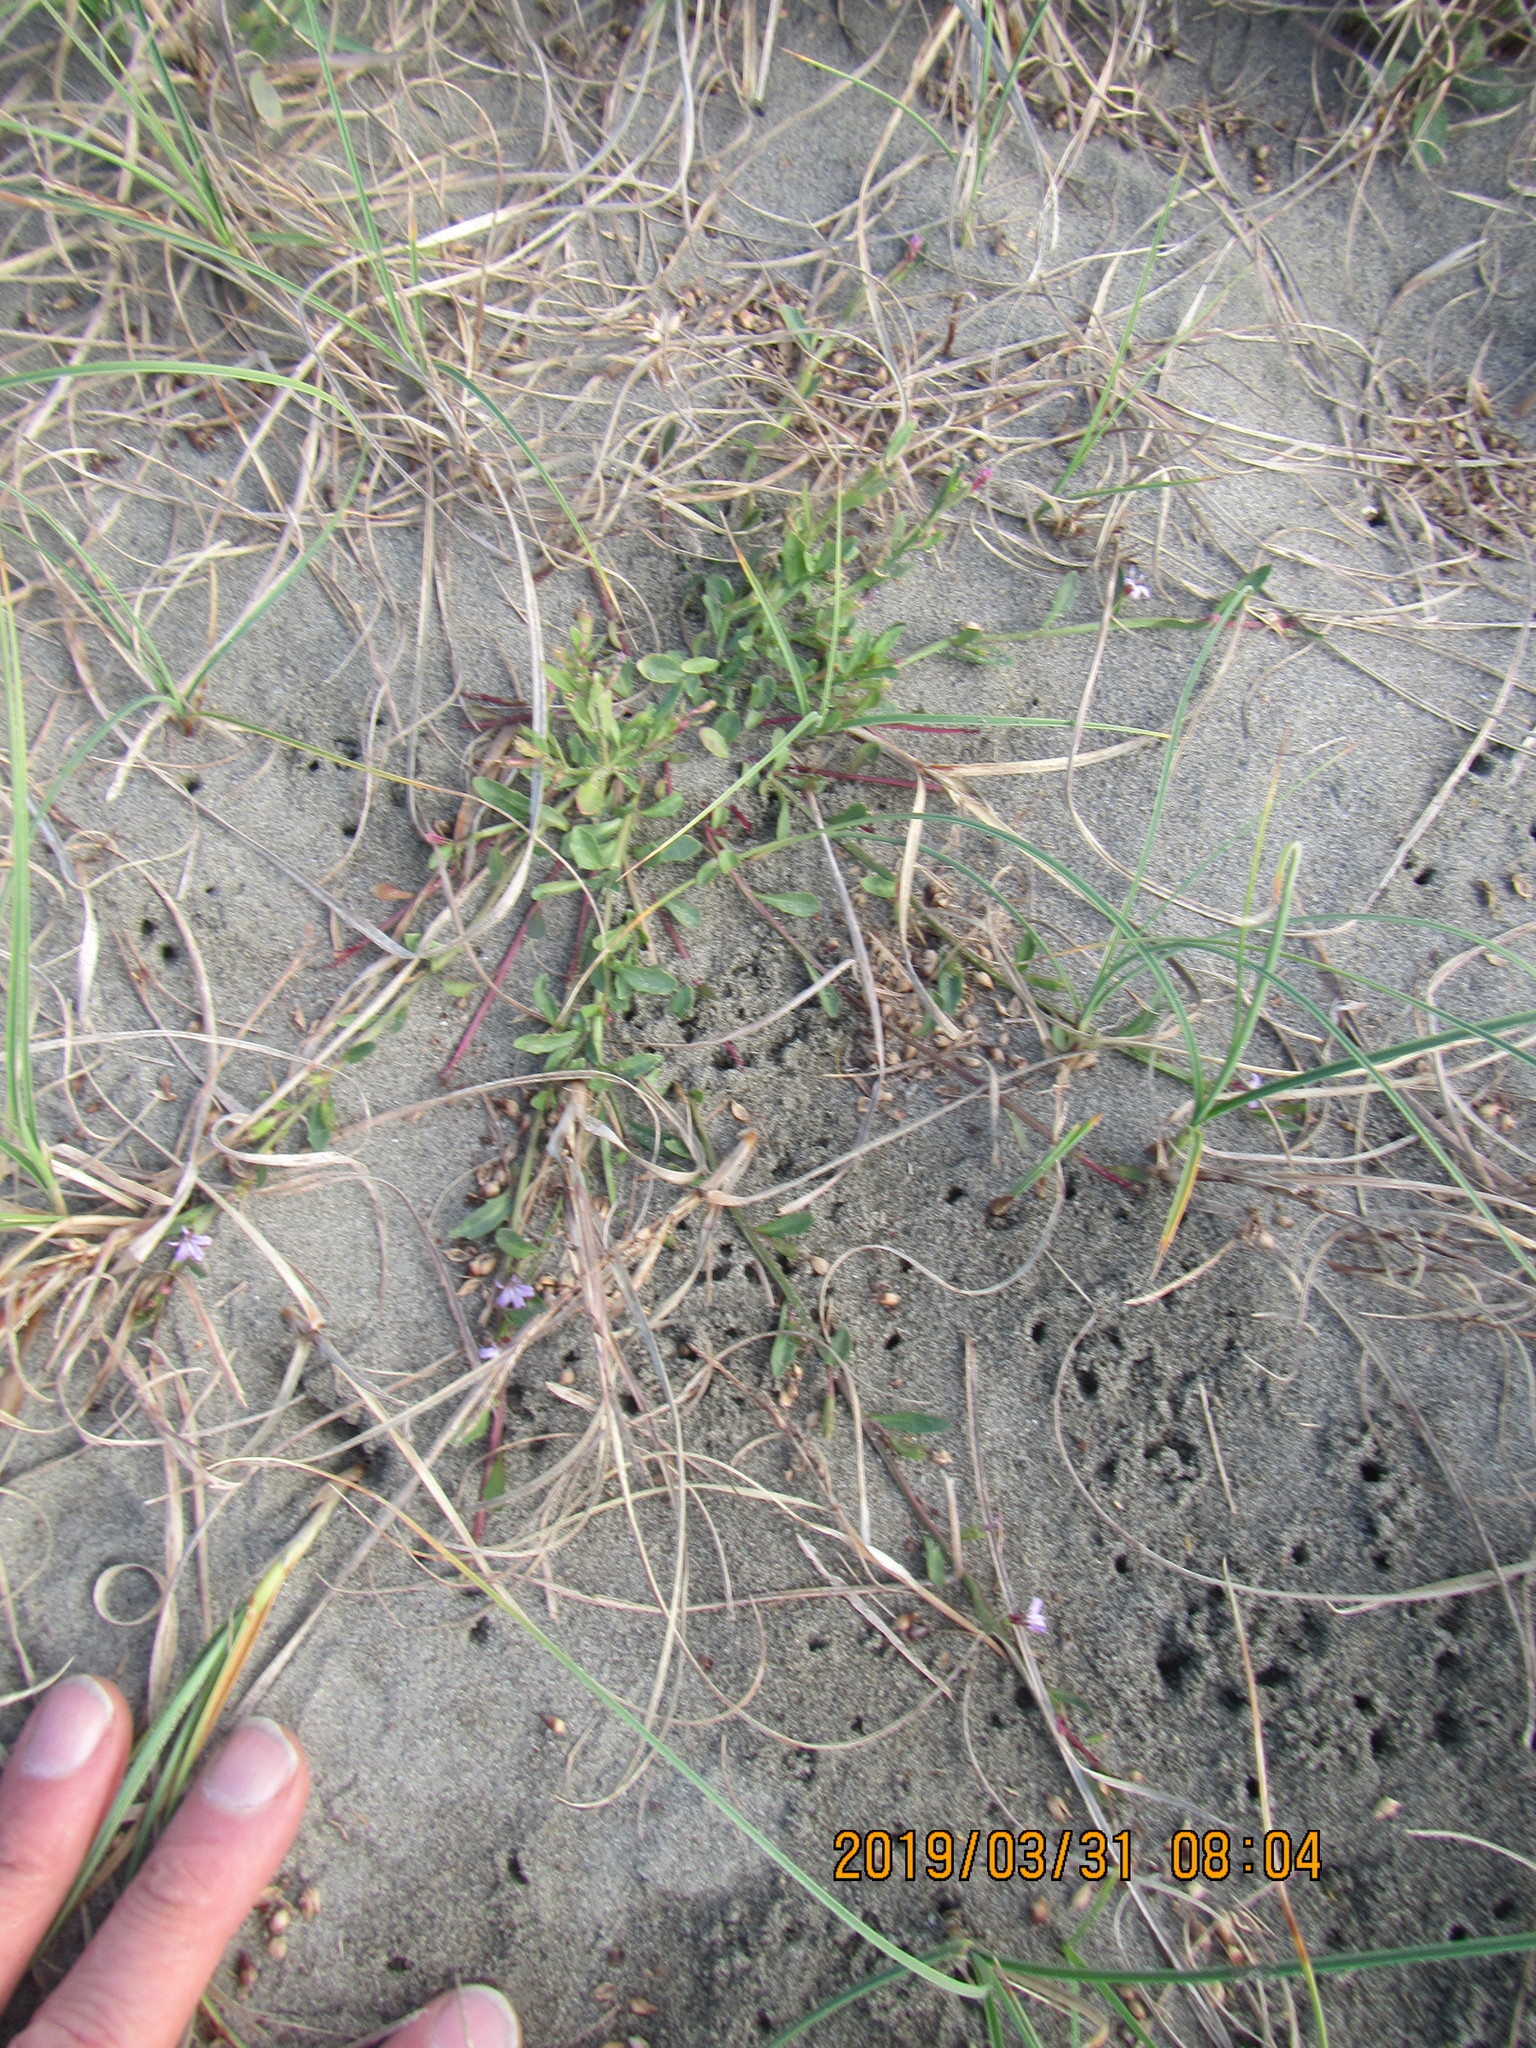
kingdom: Plantae
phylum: Tracheophyta
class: Magnoliopsida
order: Asterales
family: Campanulaceae
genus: Lobelia
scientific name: Lobelia anceps
